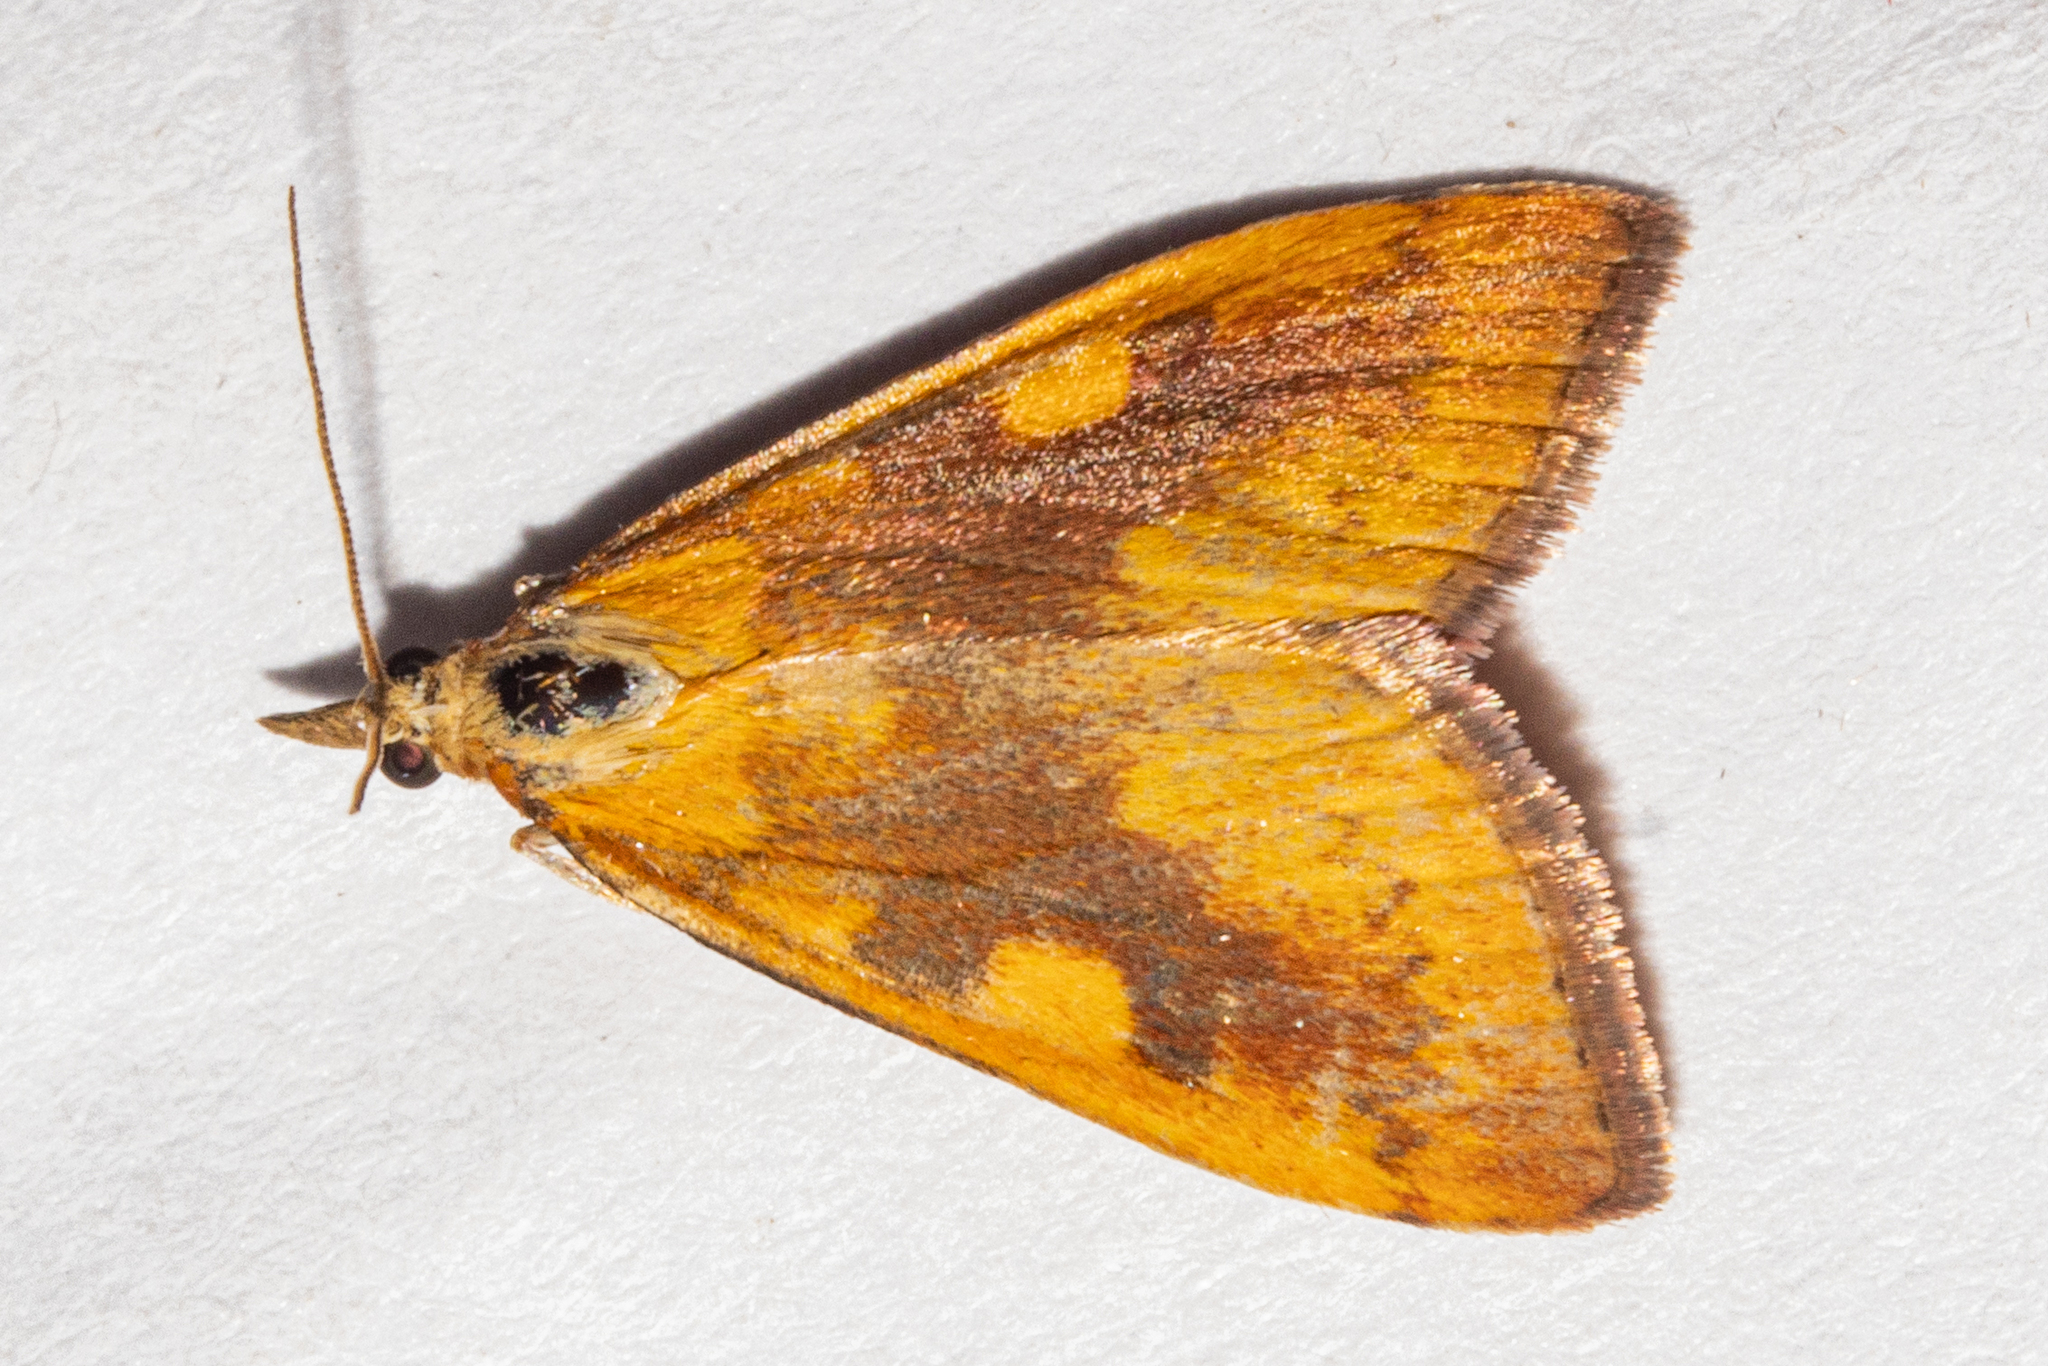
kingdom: Animalia
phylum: Arthropoda
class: Insecta
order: Lepidoptera
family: Crambidae
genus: Udea
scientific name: Udea Mnesictena flavidalis
